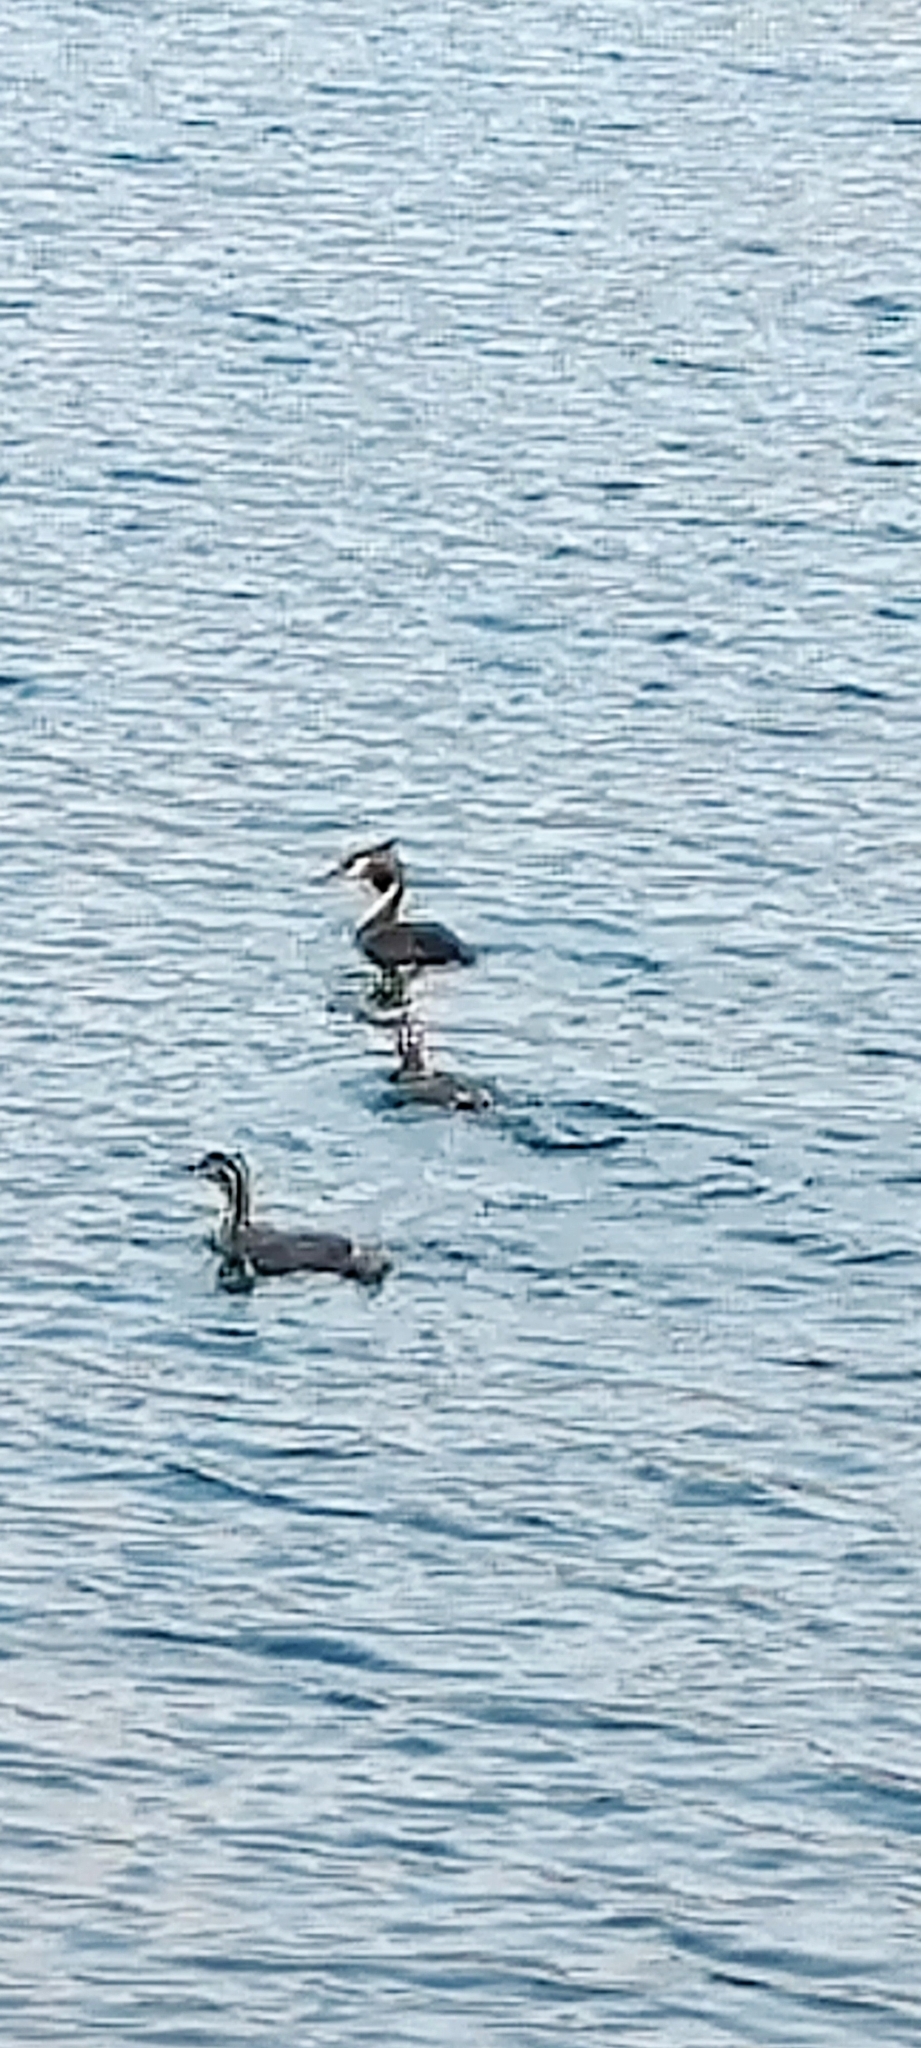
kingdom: Animalia
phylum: Chordata
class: Aves
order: Podicipediformes
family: Podicipedidae
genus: Podiceps
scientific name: Podiceps cristatus
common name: Great crested grebe
